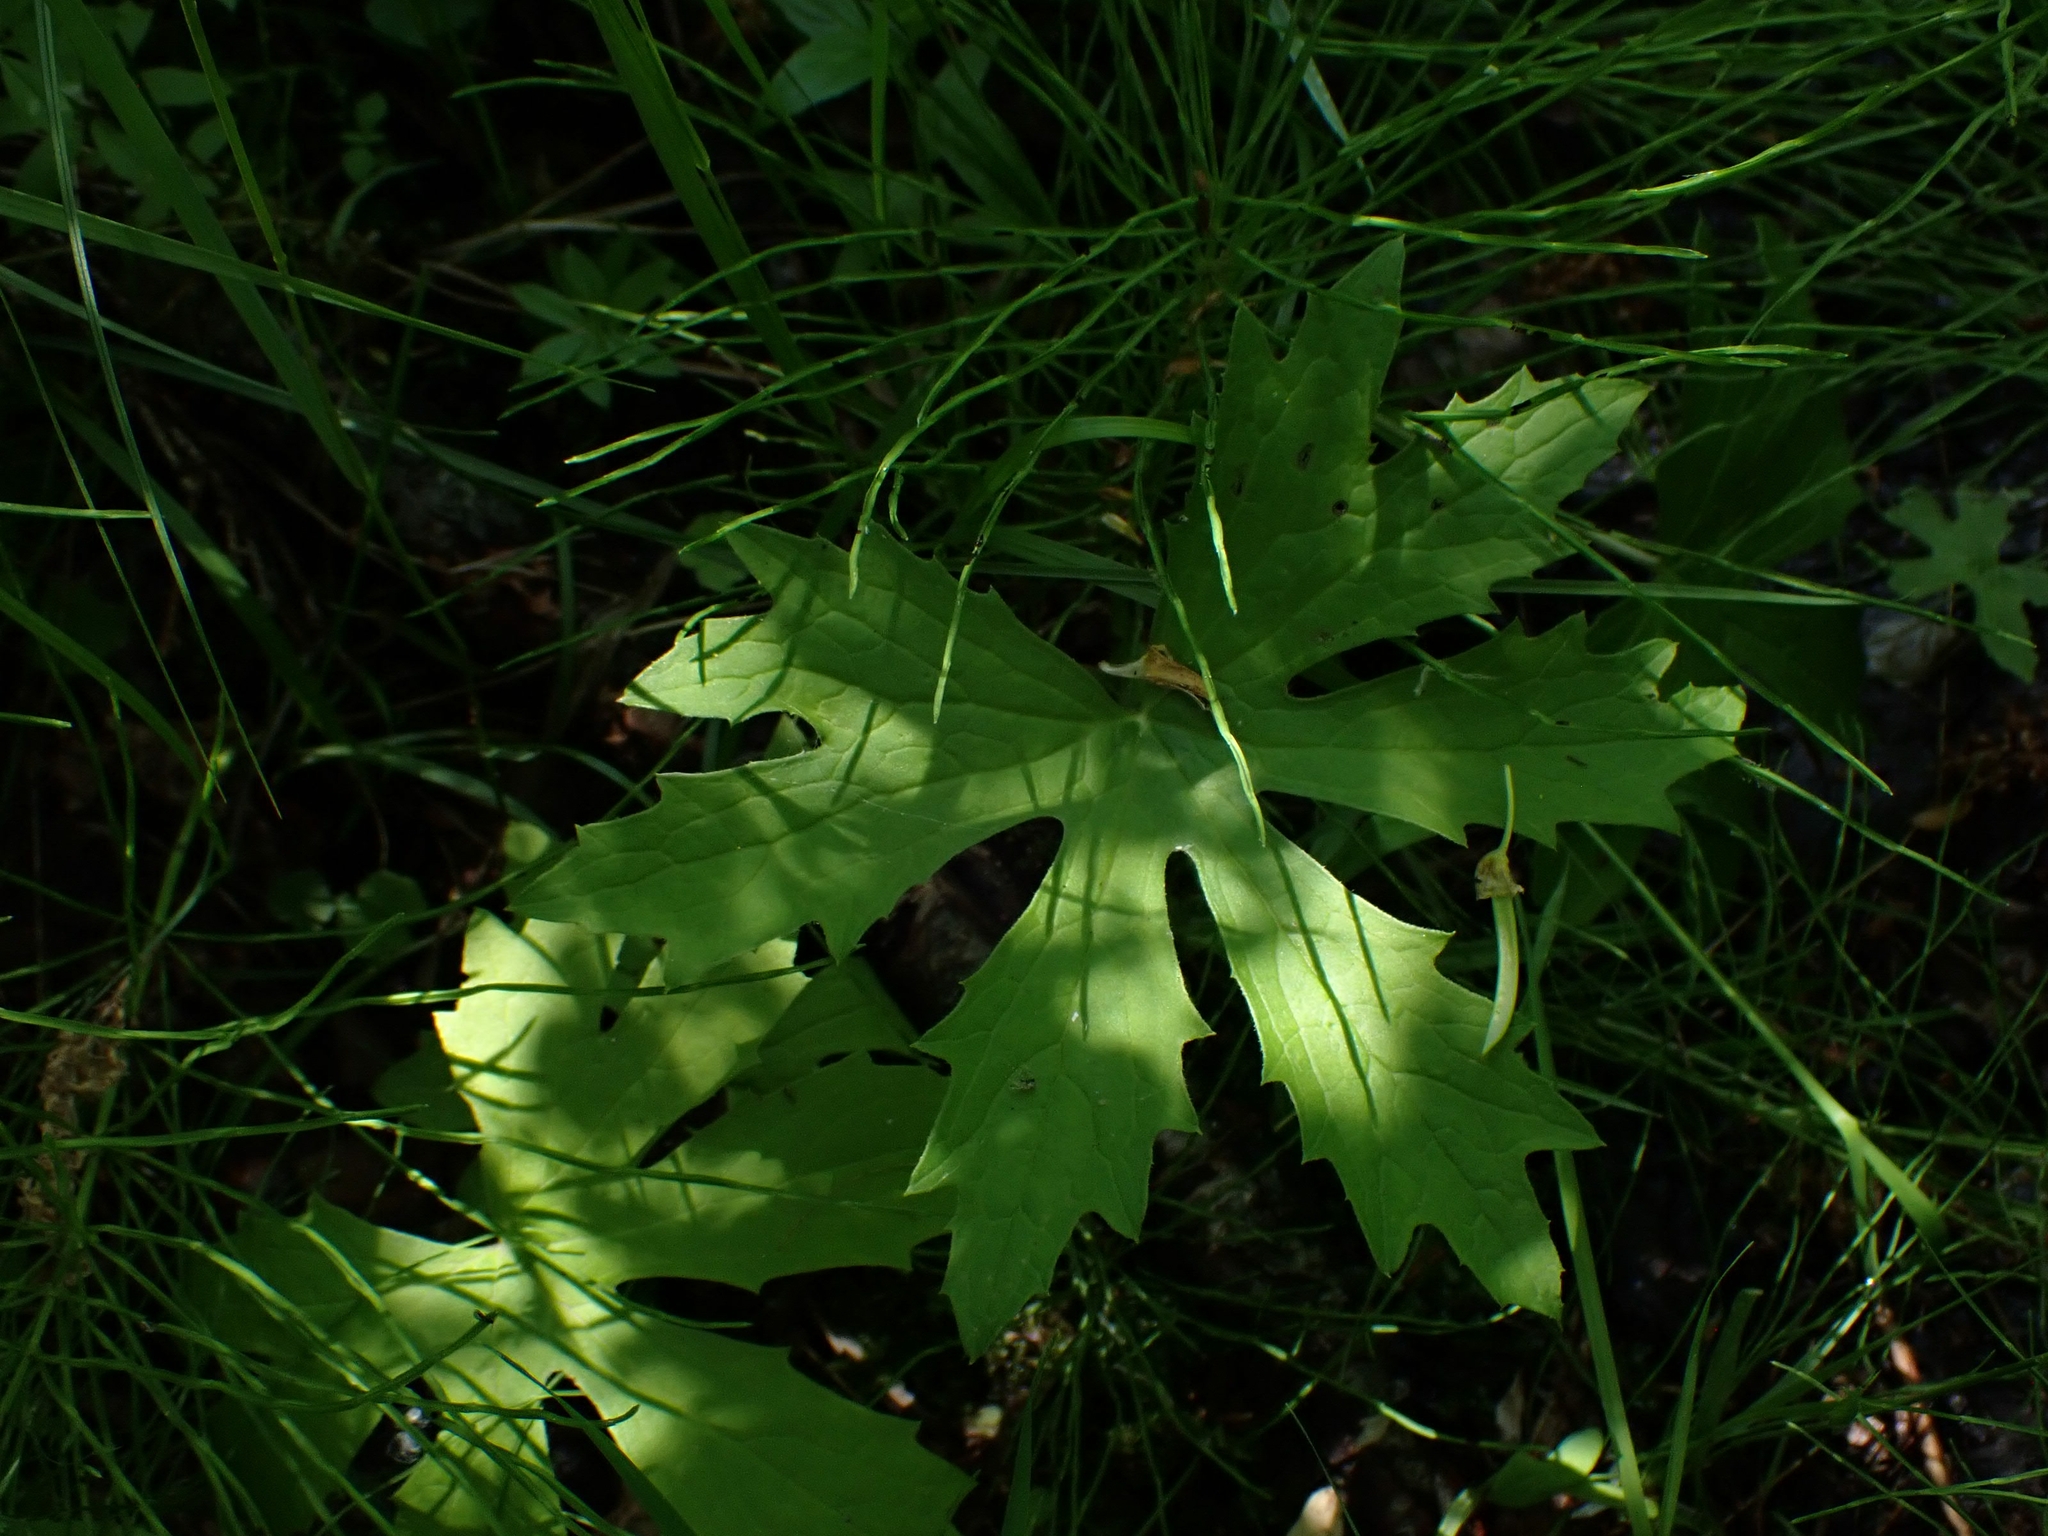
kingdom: Plantae
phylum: Tracheophyta
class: Magnoliopsida
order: Asterales
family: Asteraceae
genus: Petasites
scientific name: Petasites frigidus
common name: Arctic butterbur
